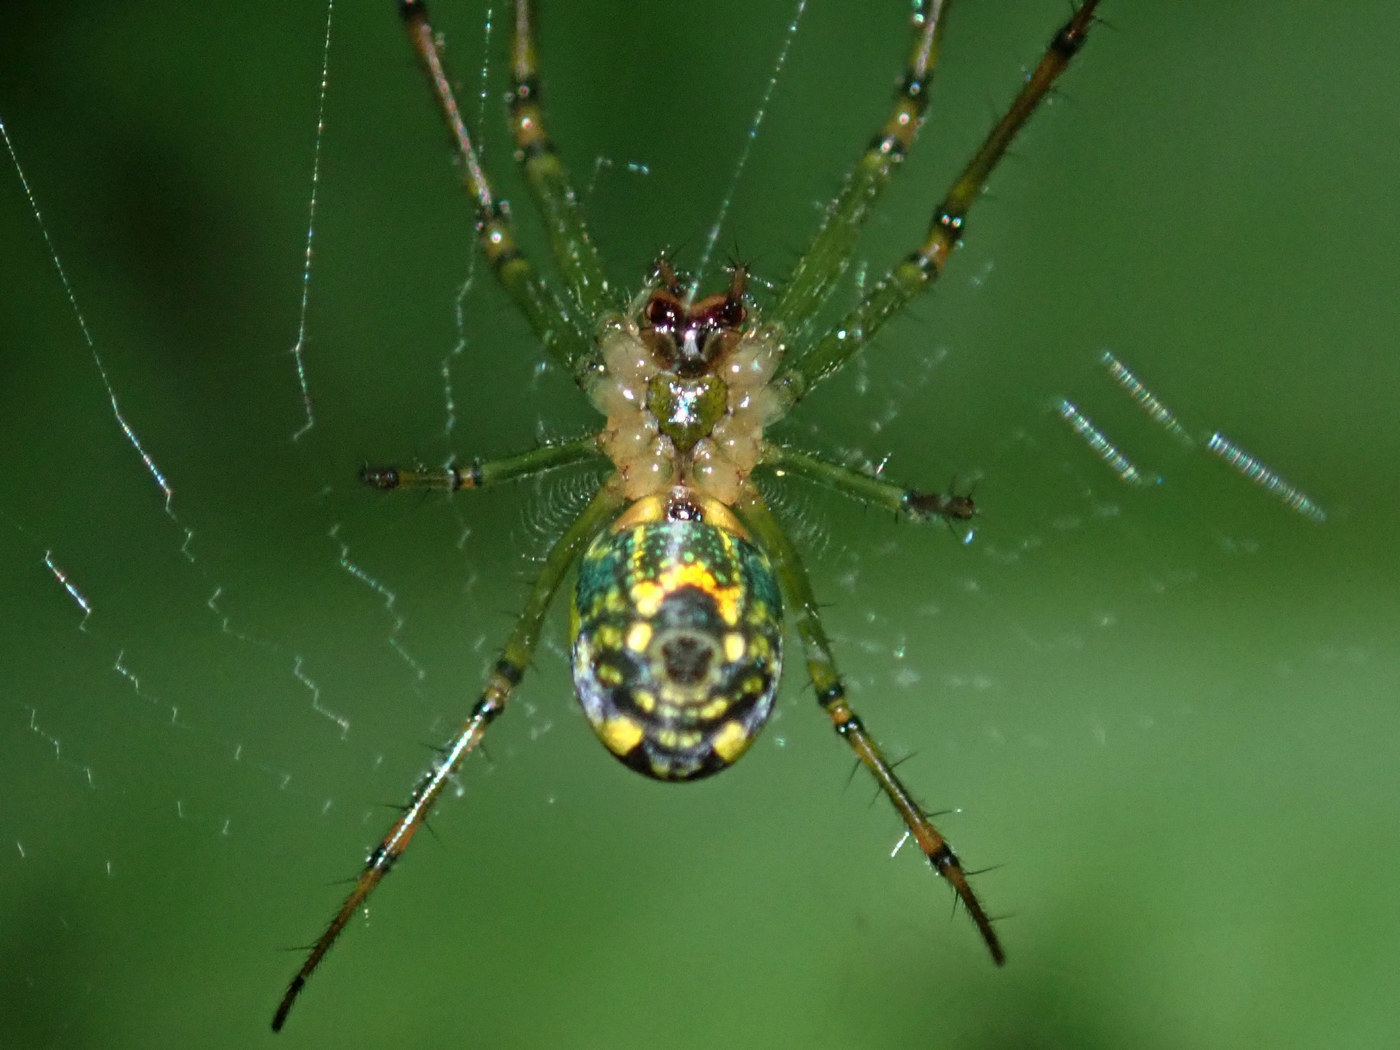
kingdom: Animalia
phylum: Arthropoda
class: Arachnida
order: Araneae
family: Tetragnathidae
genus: Leucauge
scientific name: Leucauge venusta
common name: Longjawed orb weavers
